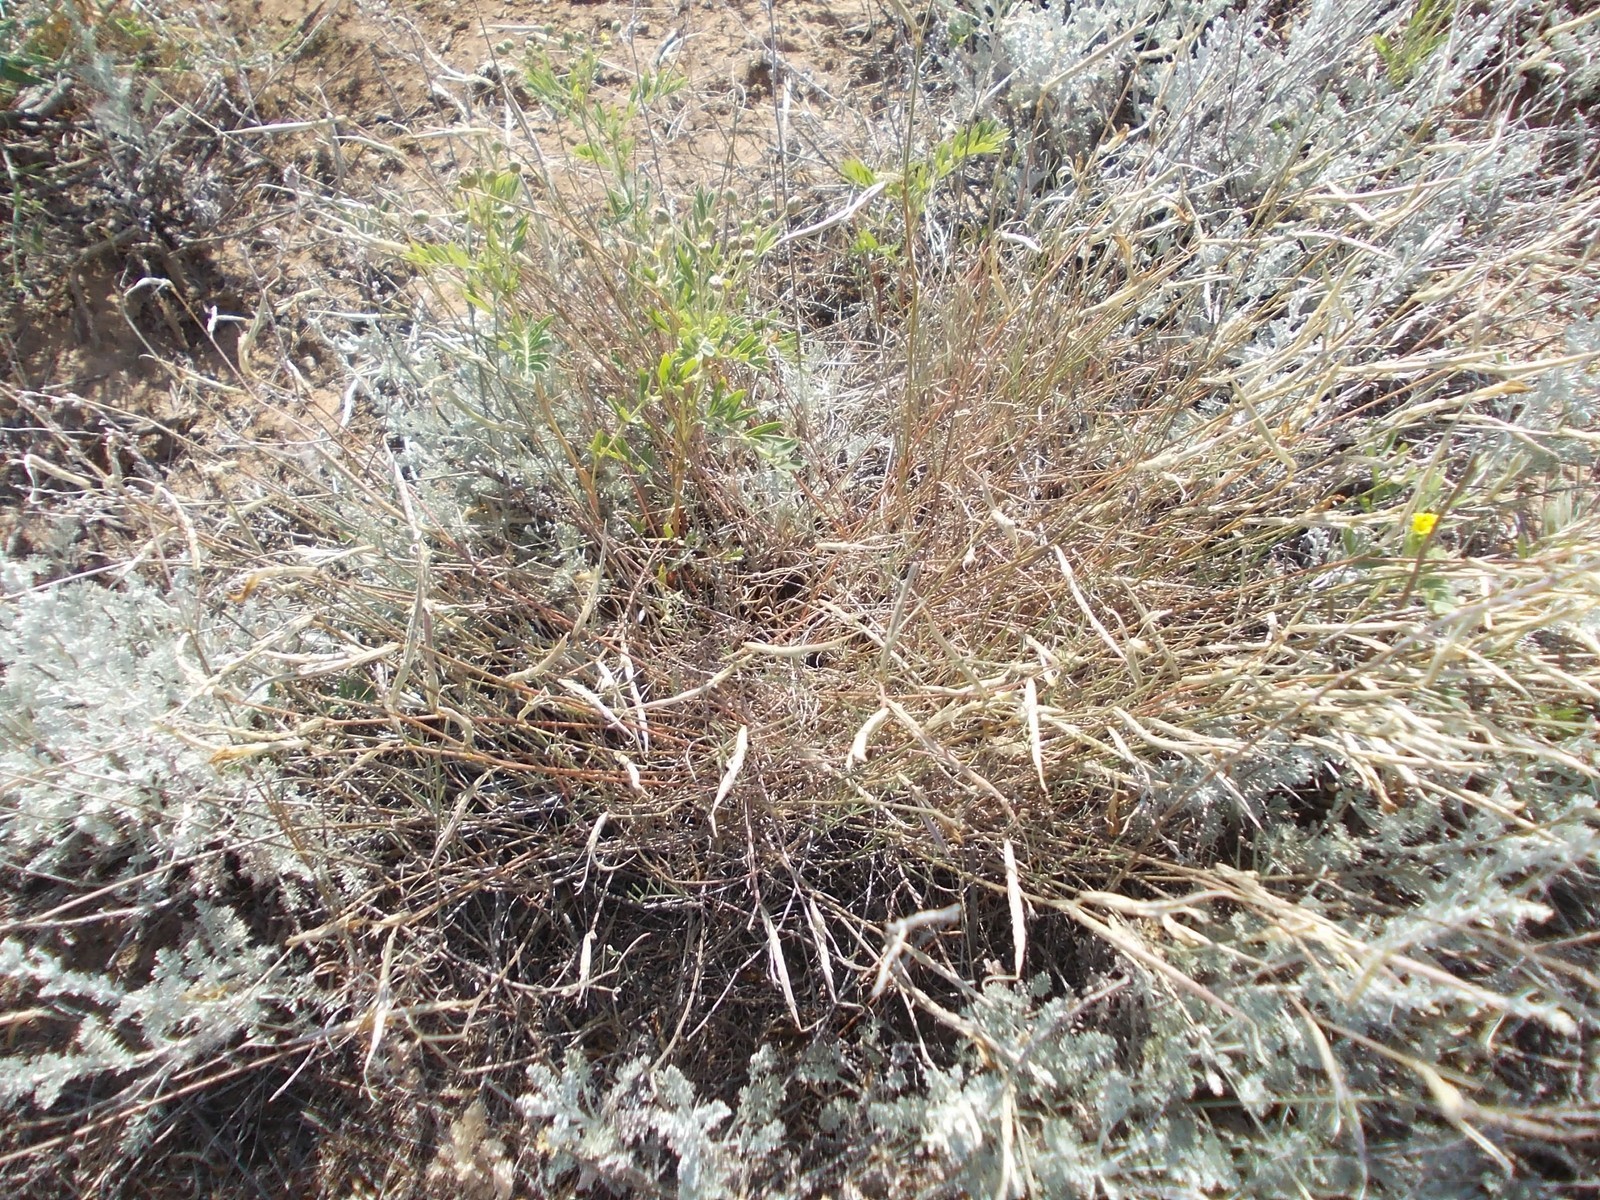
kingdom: Plantae
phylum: Tracheophyta
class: Magnoliopsida
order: Fabales
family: Fabaceae
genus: Astragalus
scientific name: Astragalus ucrainicus
